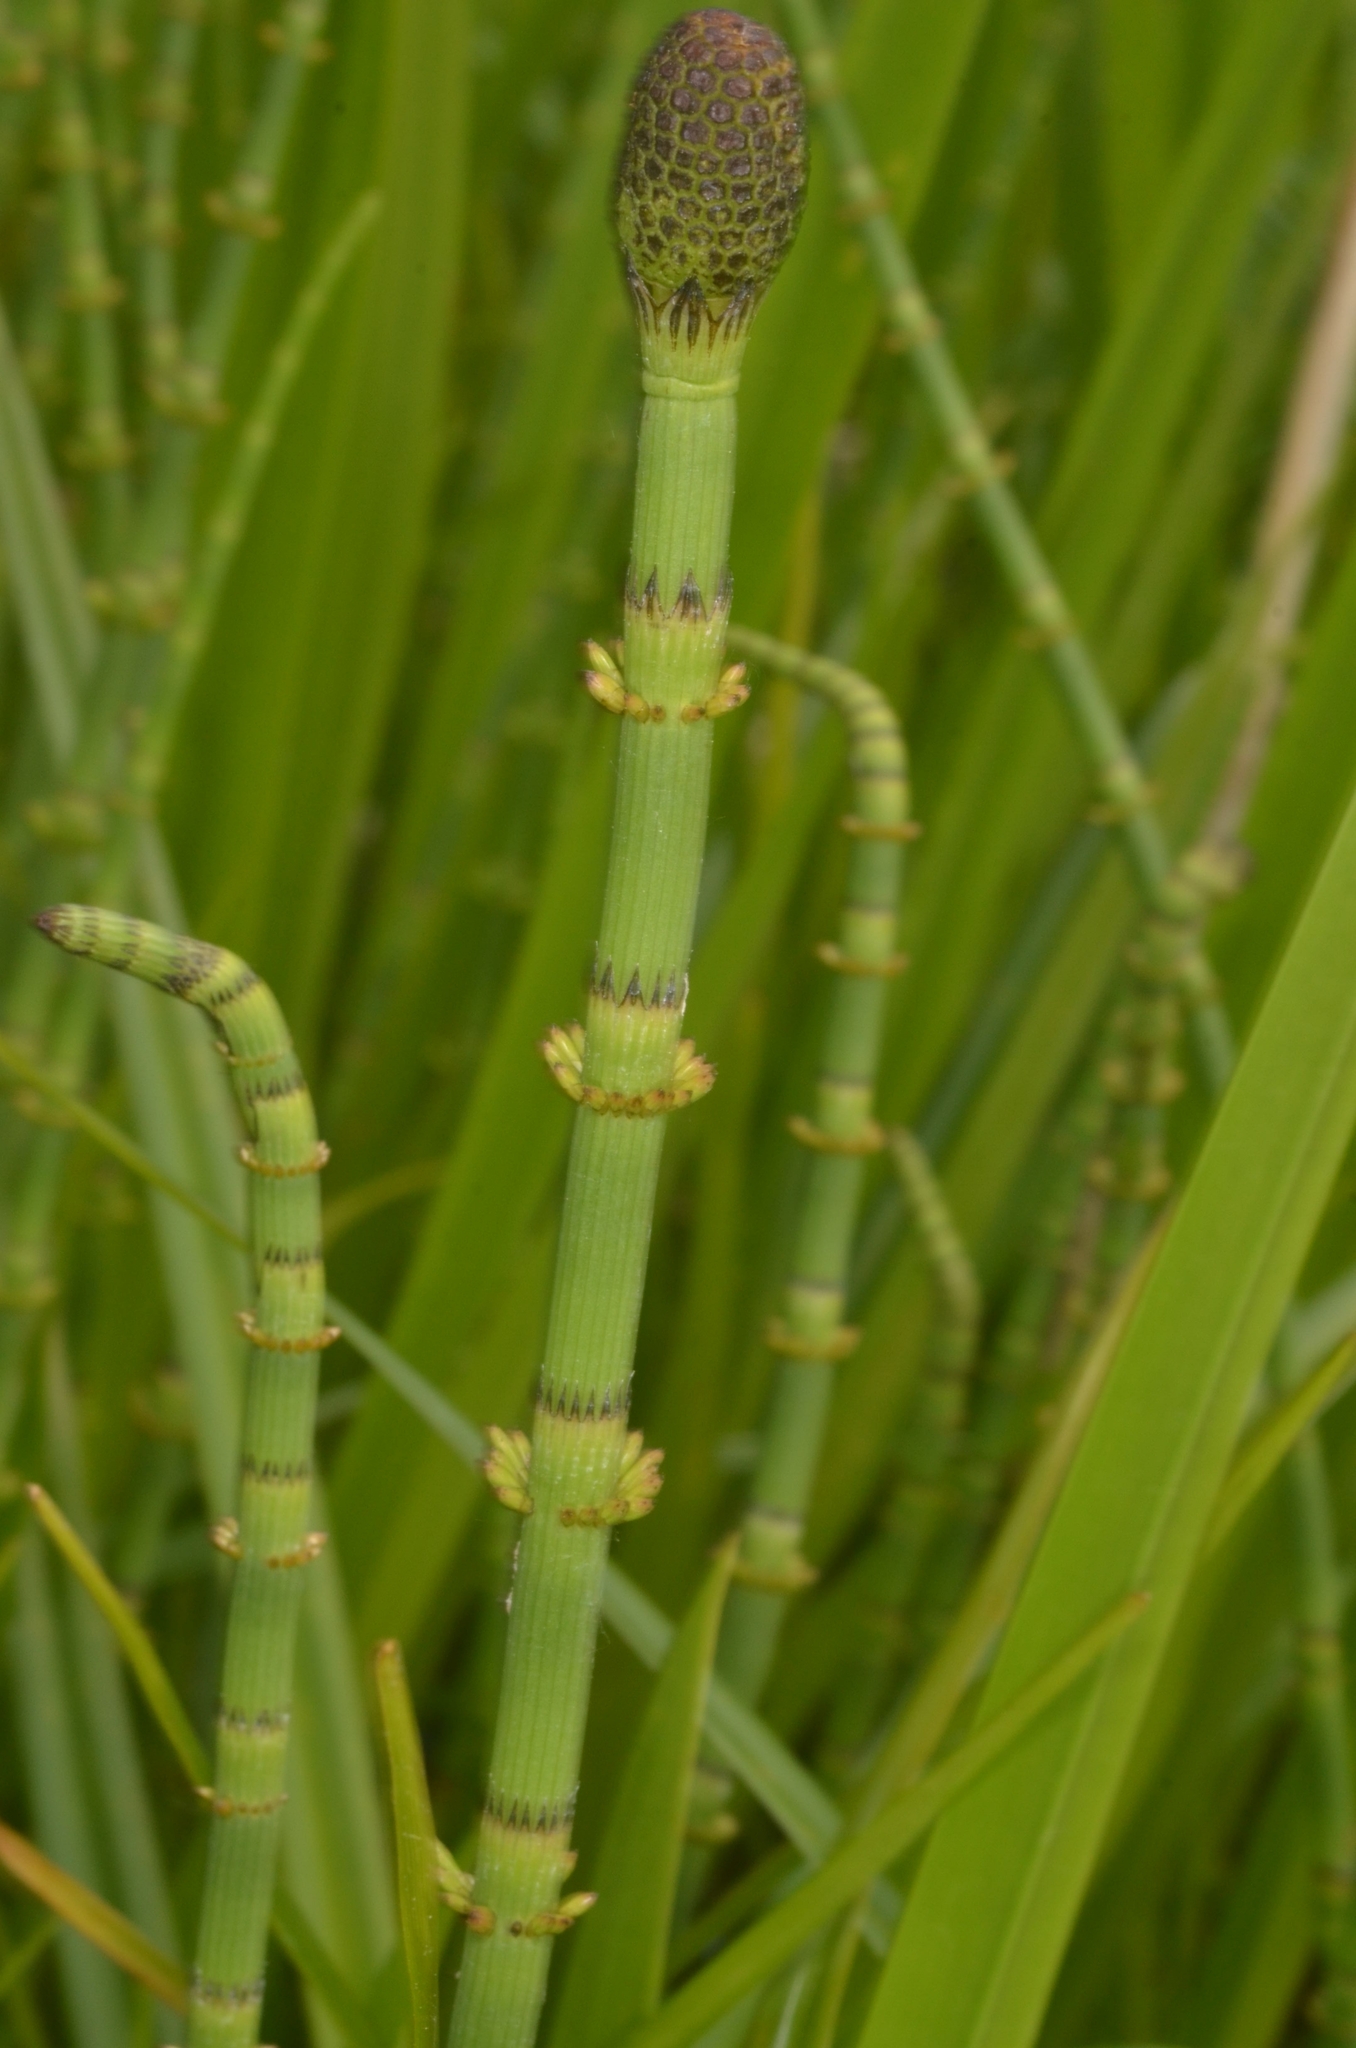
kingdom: Plantae
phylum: Tracheophyta
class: Polypodiopsida
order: Equisetales
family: Equisetaceae
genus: Equisetum
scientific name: Equisetum fluviatile
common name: Water horsetail
